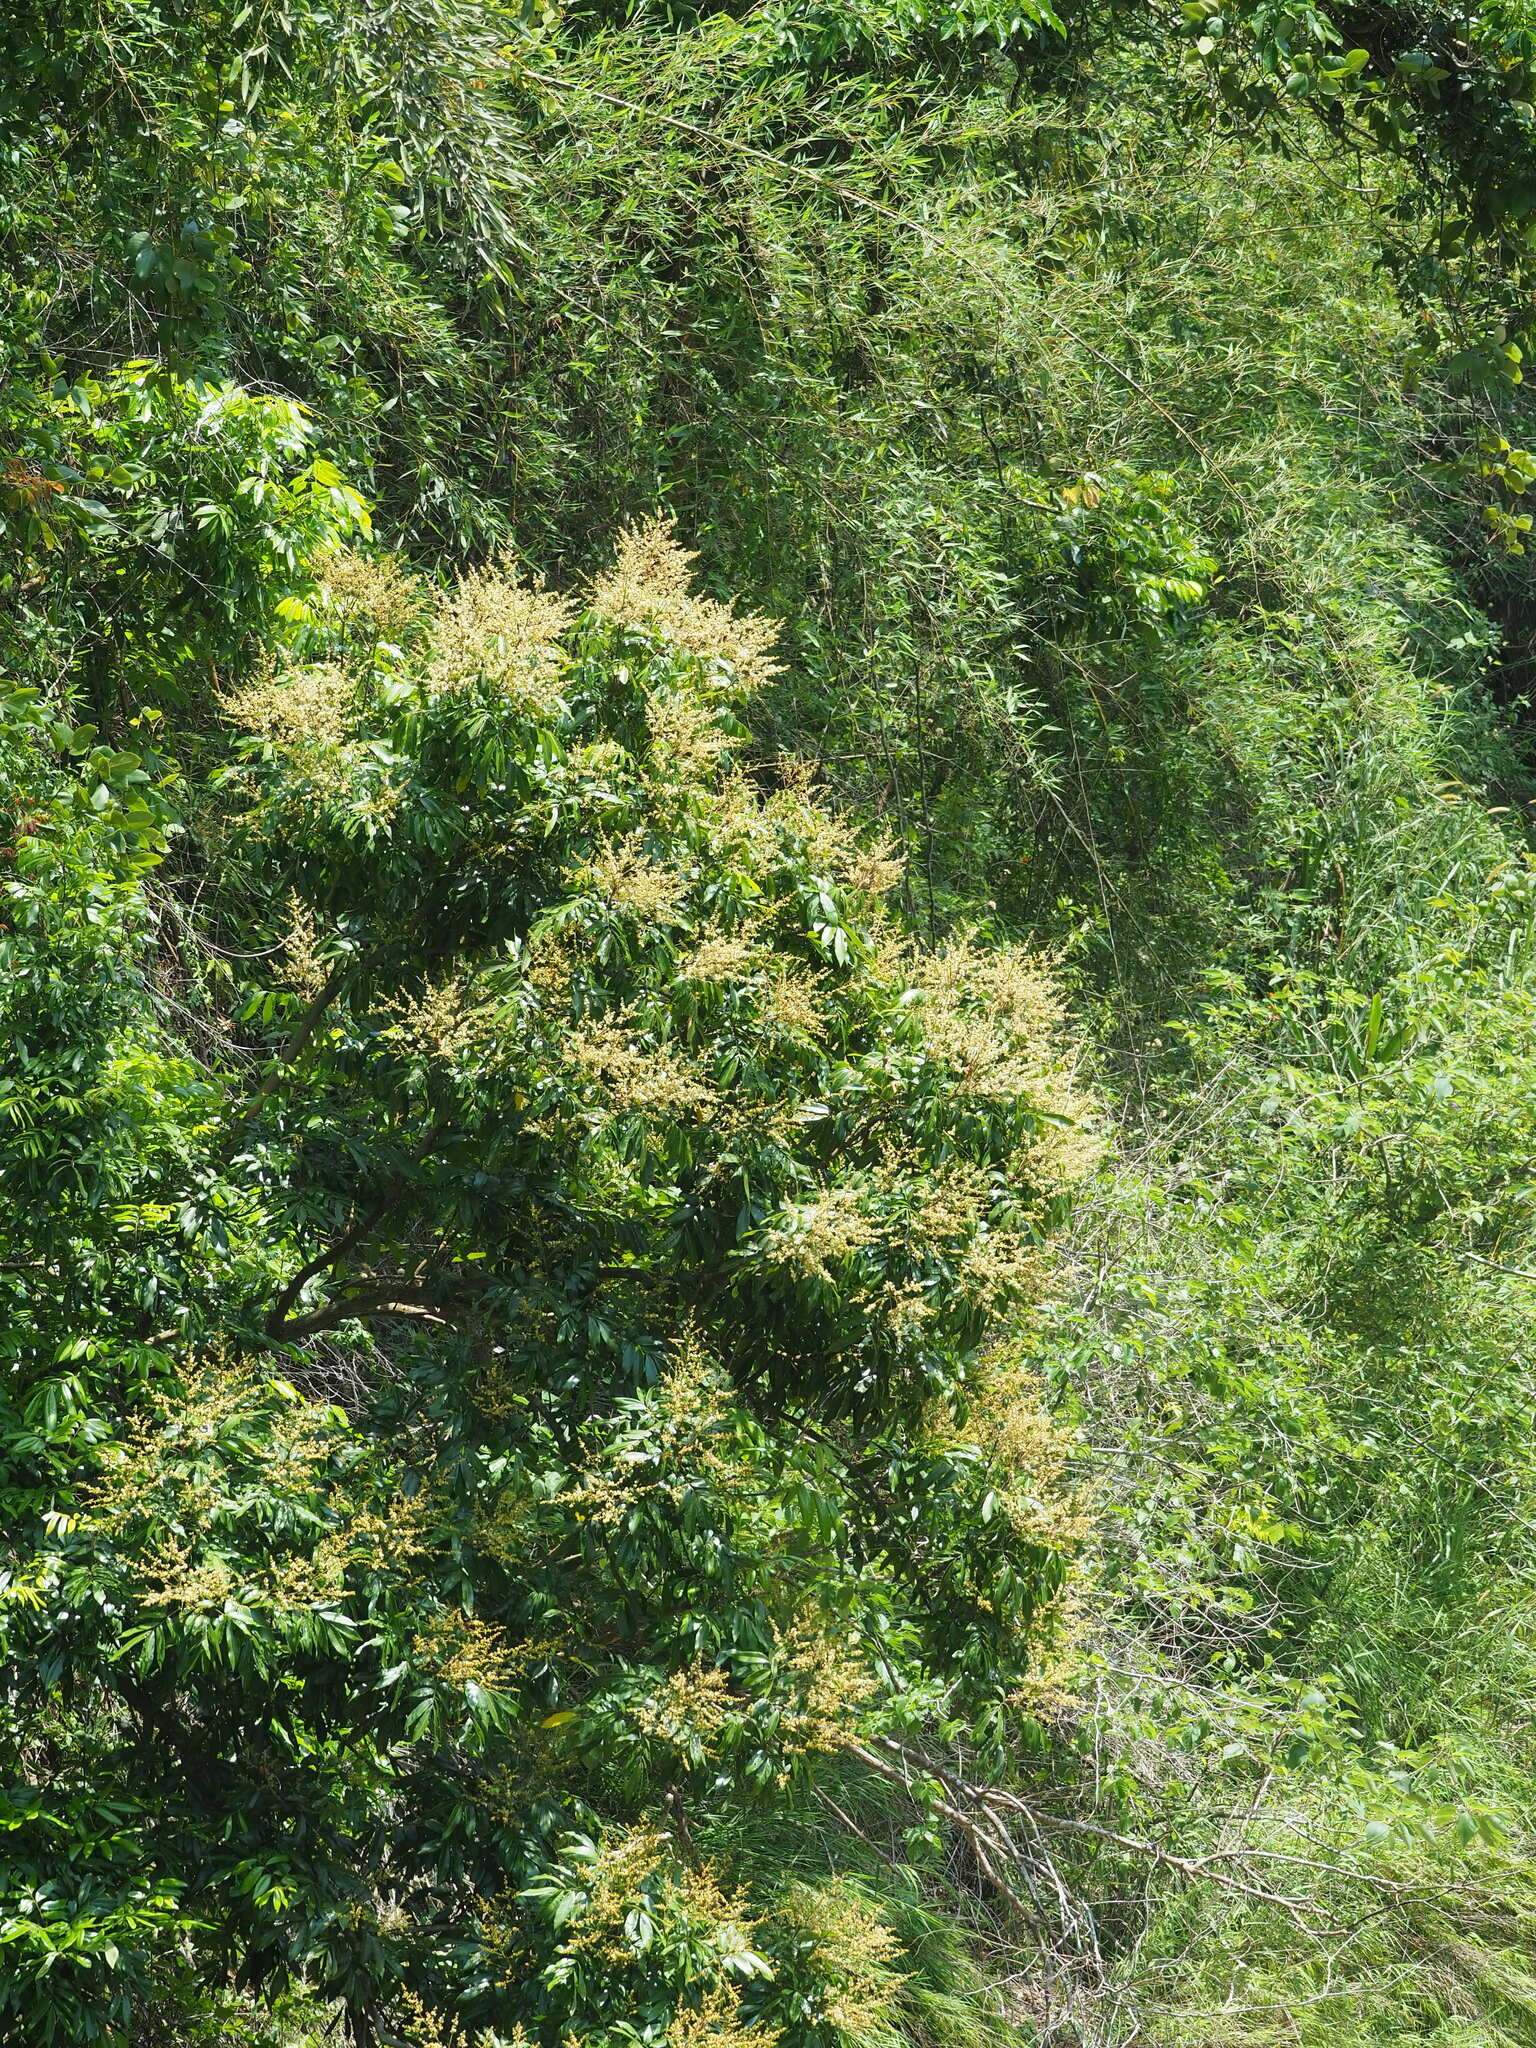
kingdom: Plantae
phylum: Tracheophyta
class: Magnoliopsida
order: Sapindales
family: Sapindaceae
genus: Dimocarpus
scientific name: Dimocarpus longan
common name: Longan
